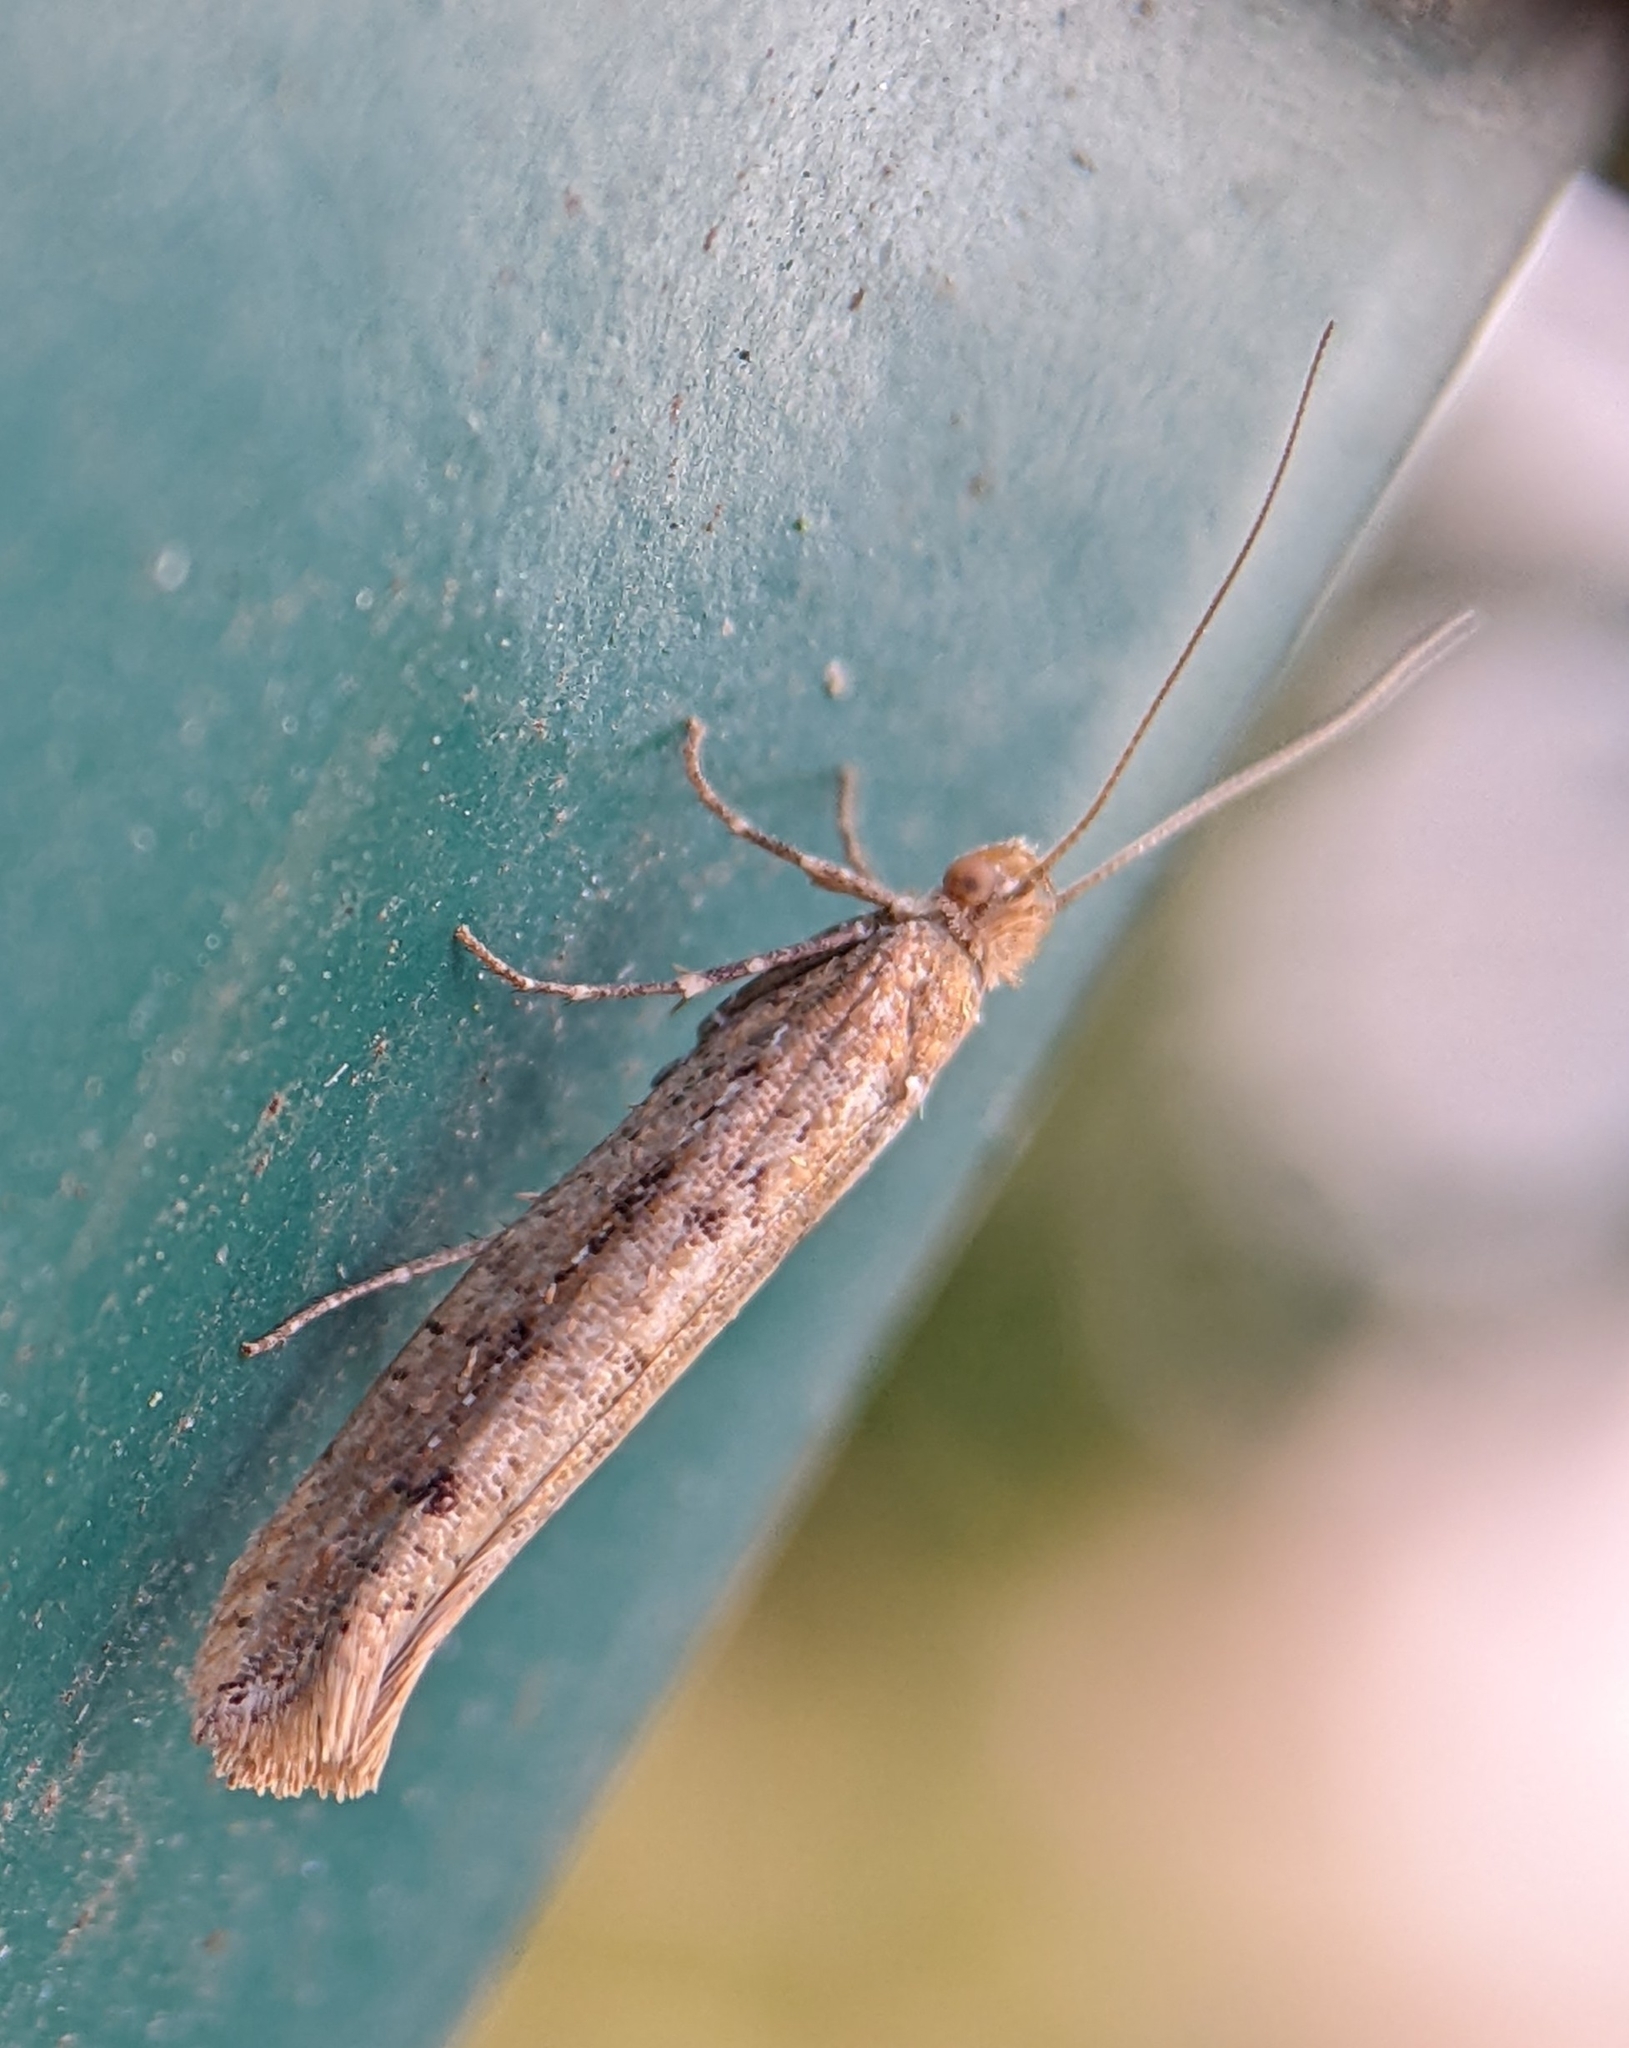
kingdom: Animalia
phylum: Arthropoda
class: Insecta
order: Lepidoptera
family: Plutellidae
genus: Ypsolophus
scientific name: Ypsolophus ustella
